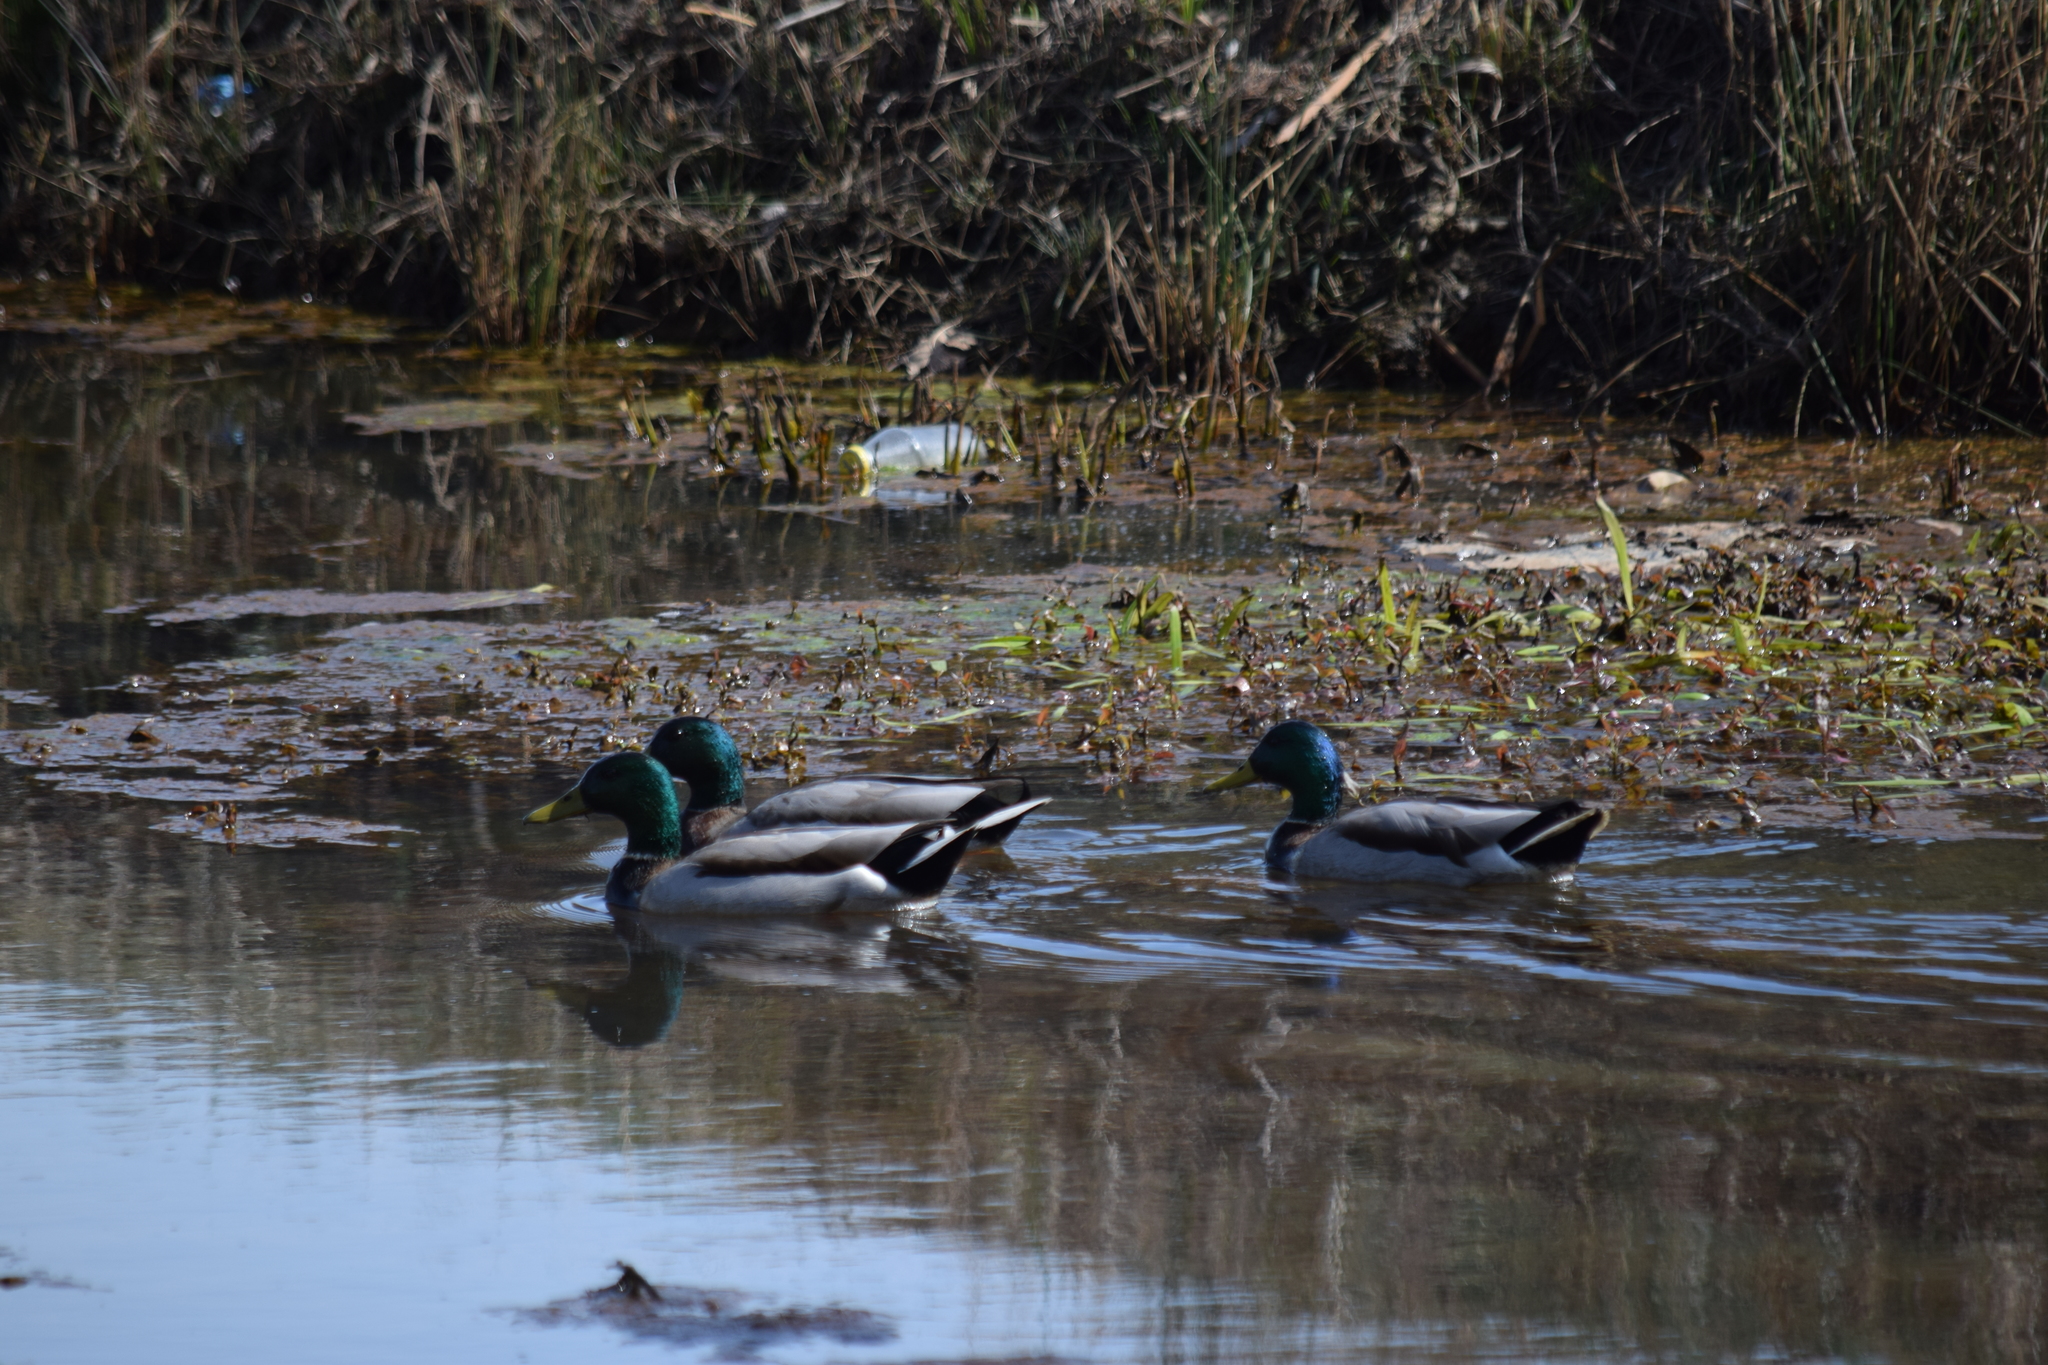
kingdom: Animalia
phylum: Chordata
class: Aves
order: Anseriformes
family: Anatidae
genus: Anas
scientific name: Anas platyrhynchos
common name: Mallard
